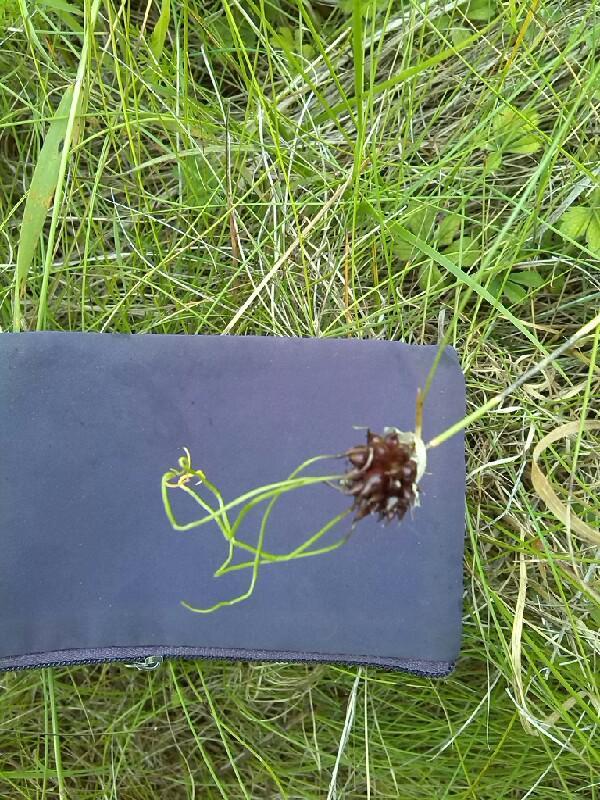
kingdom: Plantae
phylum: Tracheophyta
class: Liliopsida
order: Asparagales
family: Amaryllidaceae
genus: Allium
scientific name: Allium vineale
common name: Crow garlic
